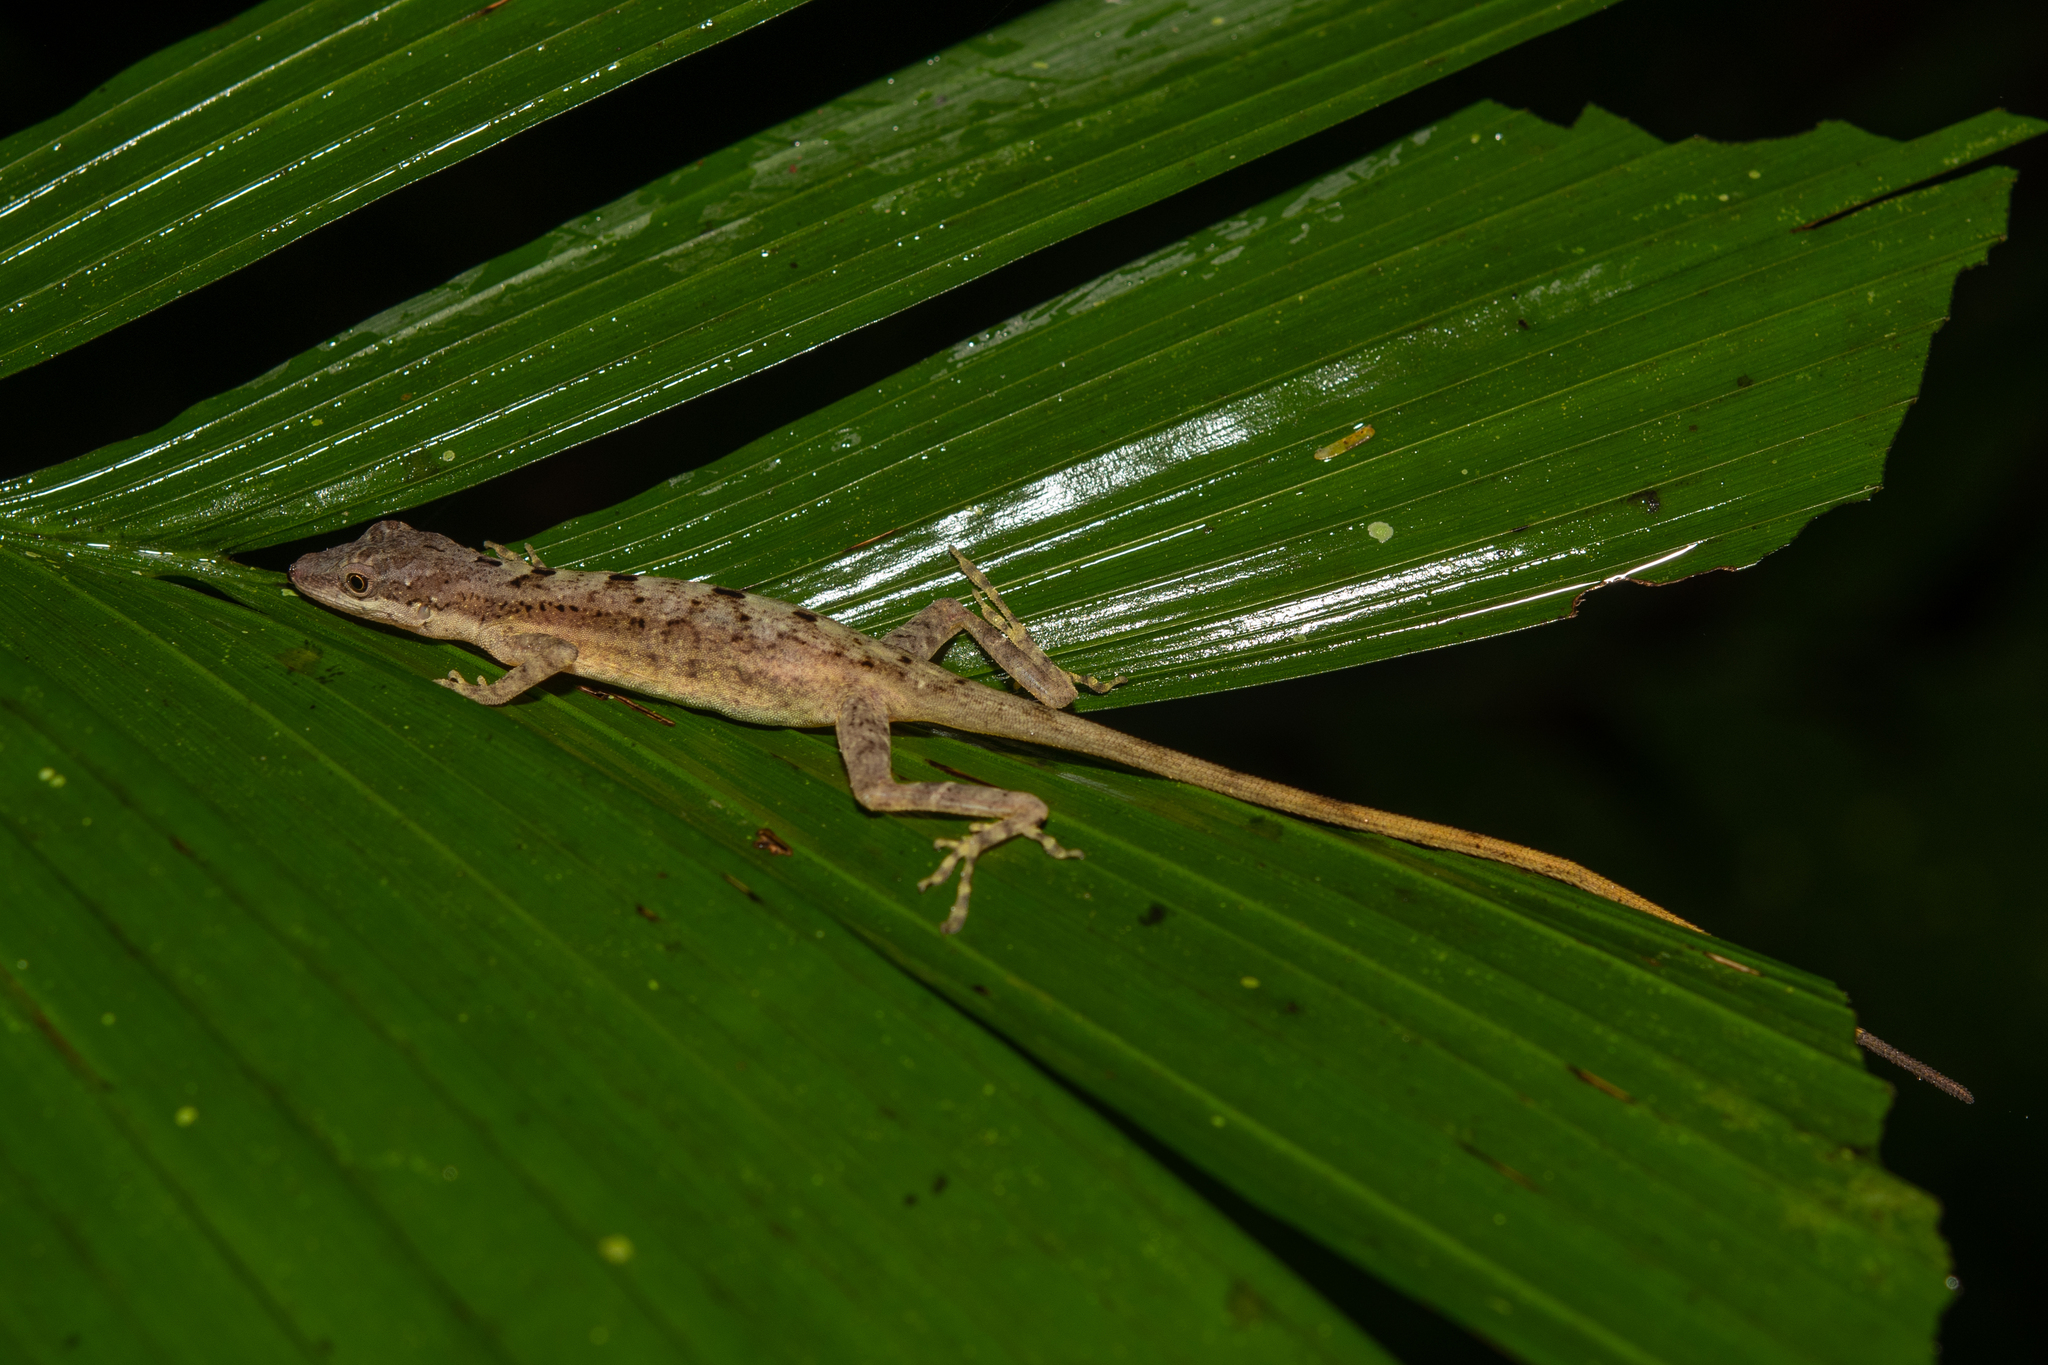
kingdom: Animalia
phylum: Chordata
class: Squamata
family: Dactyloidae
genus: Anolis
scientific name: Anolis lemurinus
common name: Ghost anole
